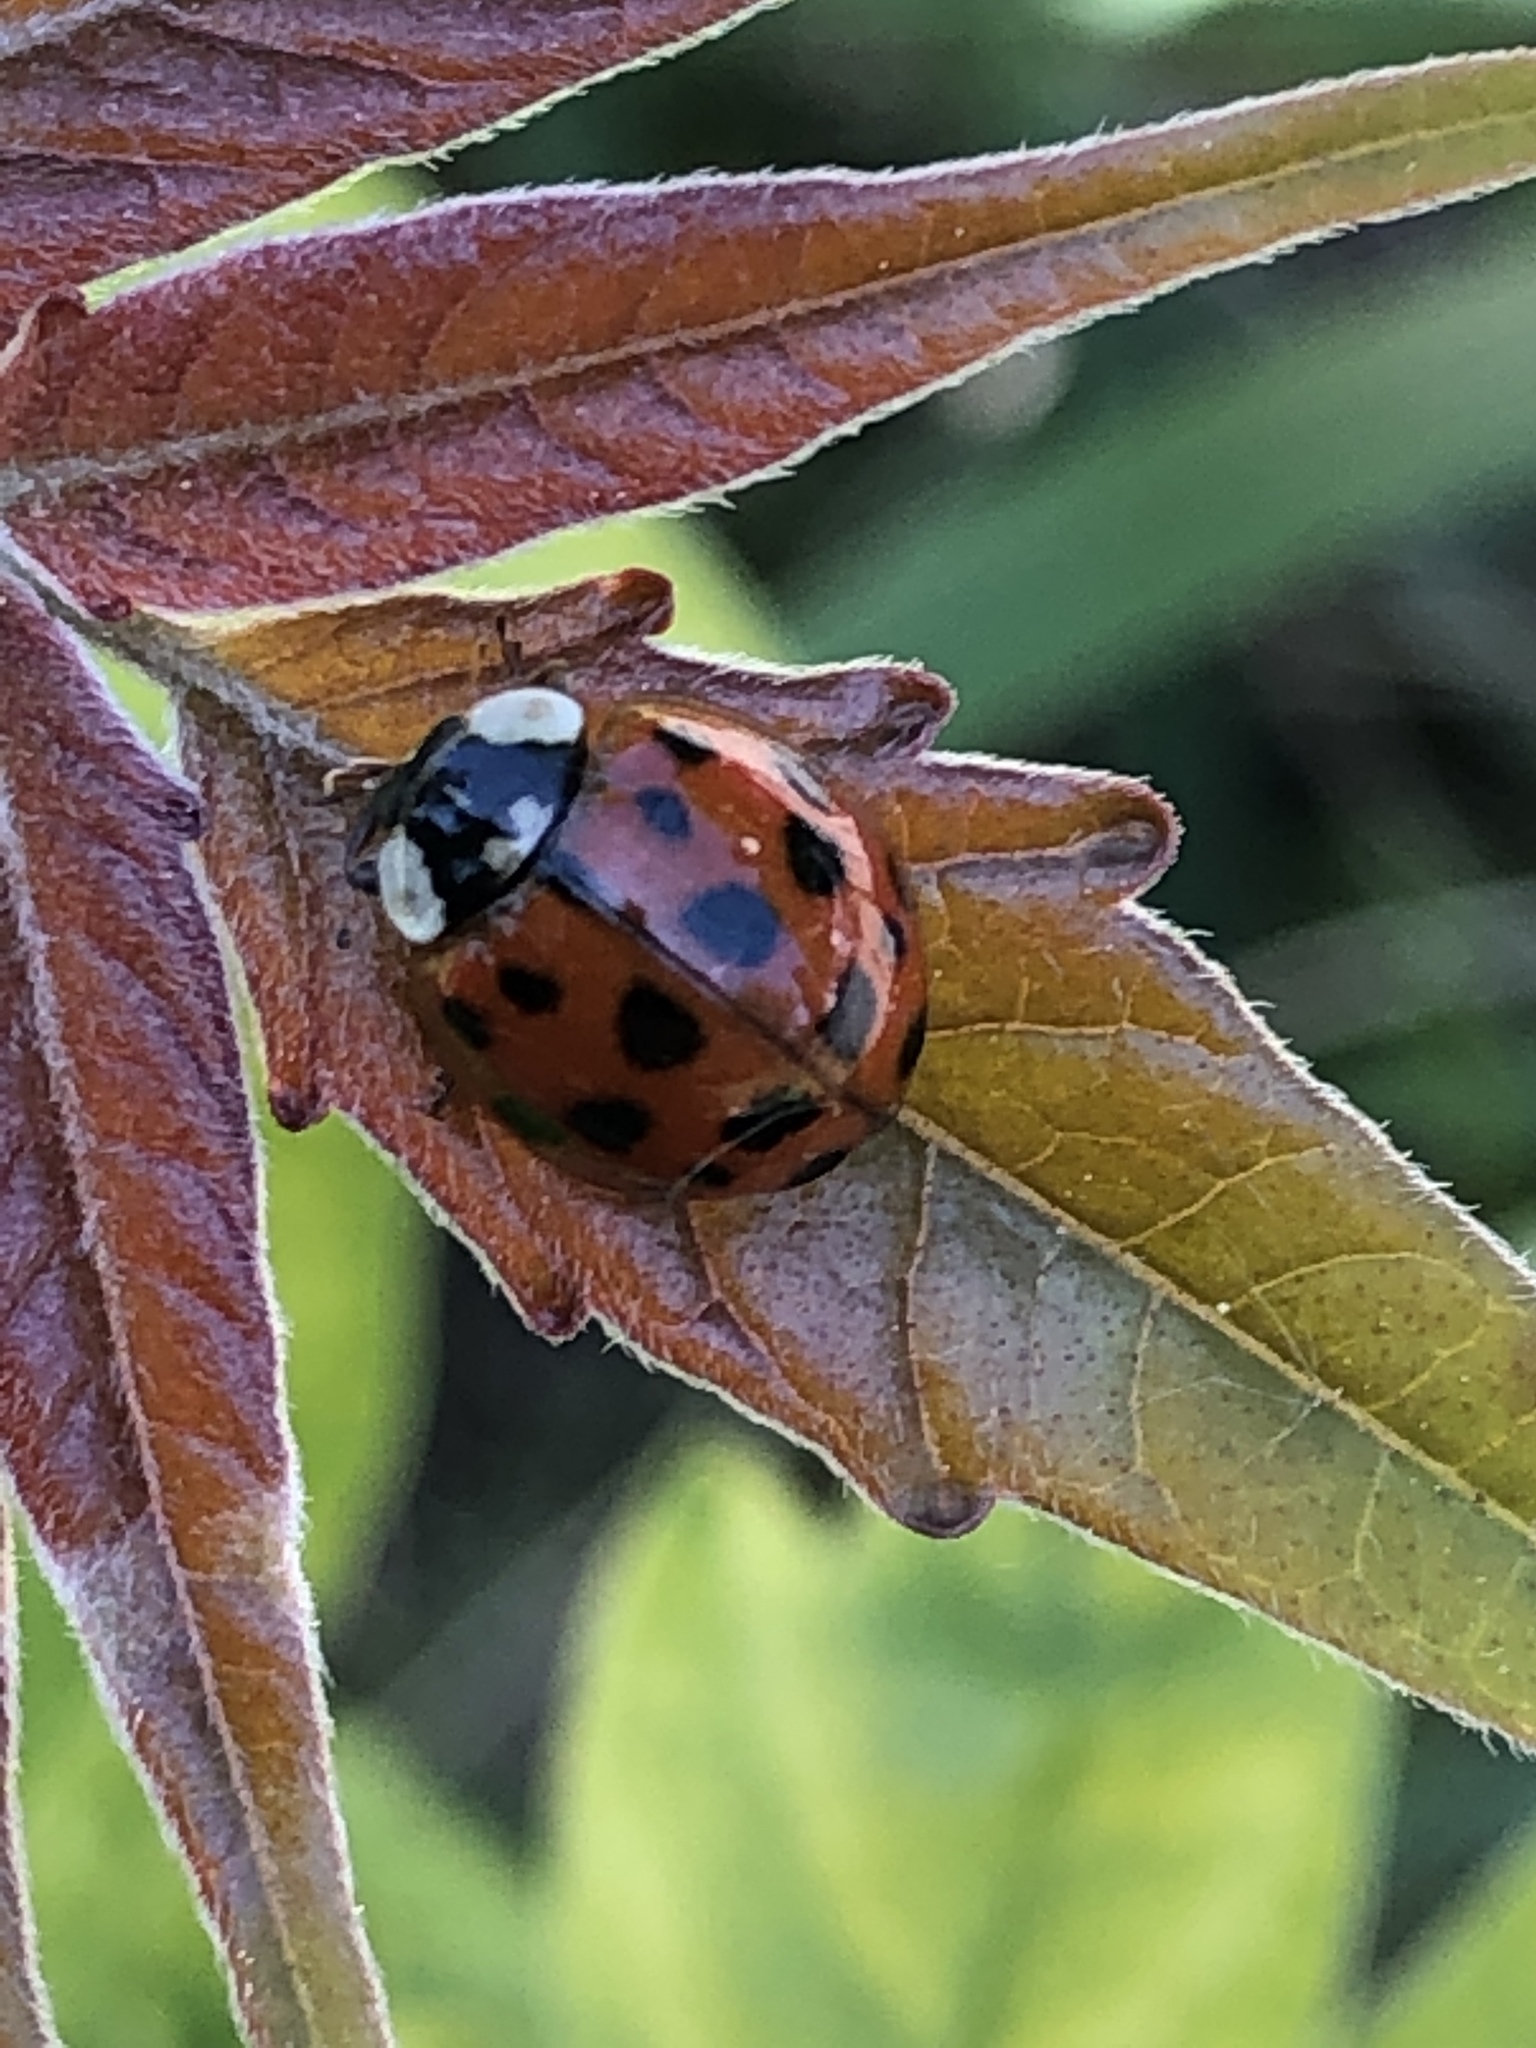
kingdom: Animalia
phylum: Arthropoda
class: Insecta
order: Coleoptera
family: Coccinellidae
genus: Harmonia
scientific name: Harmonia axyridis
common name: Harlequin ladybird
